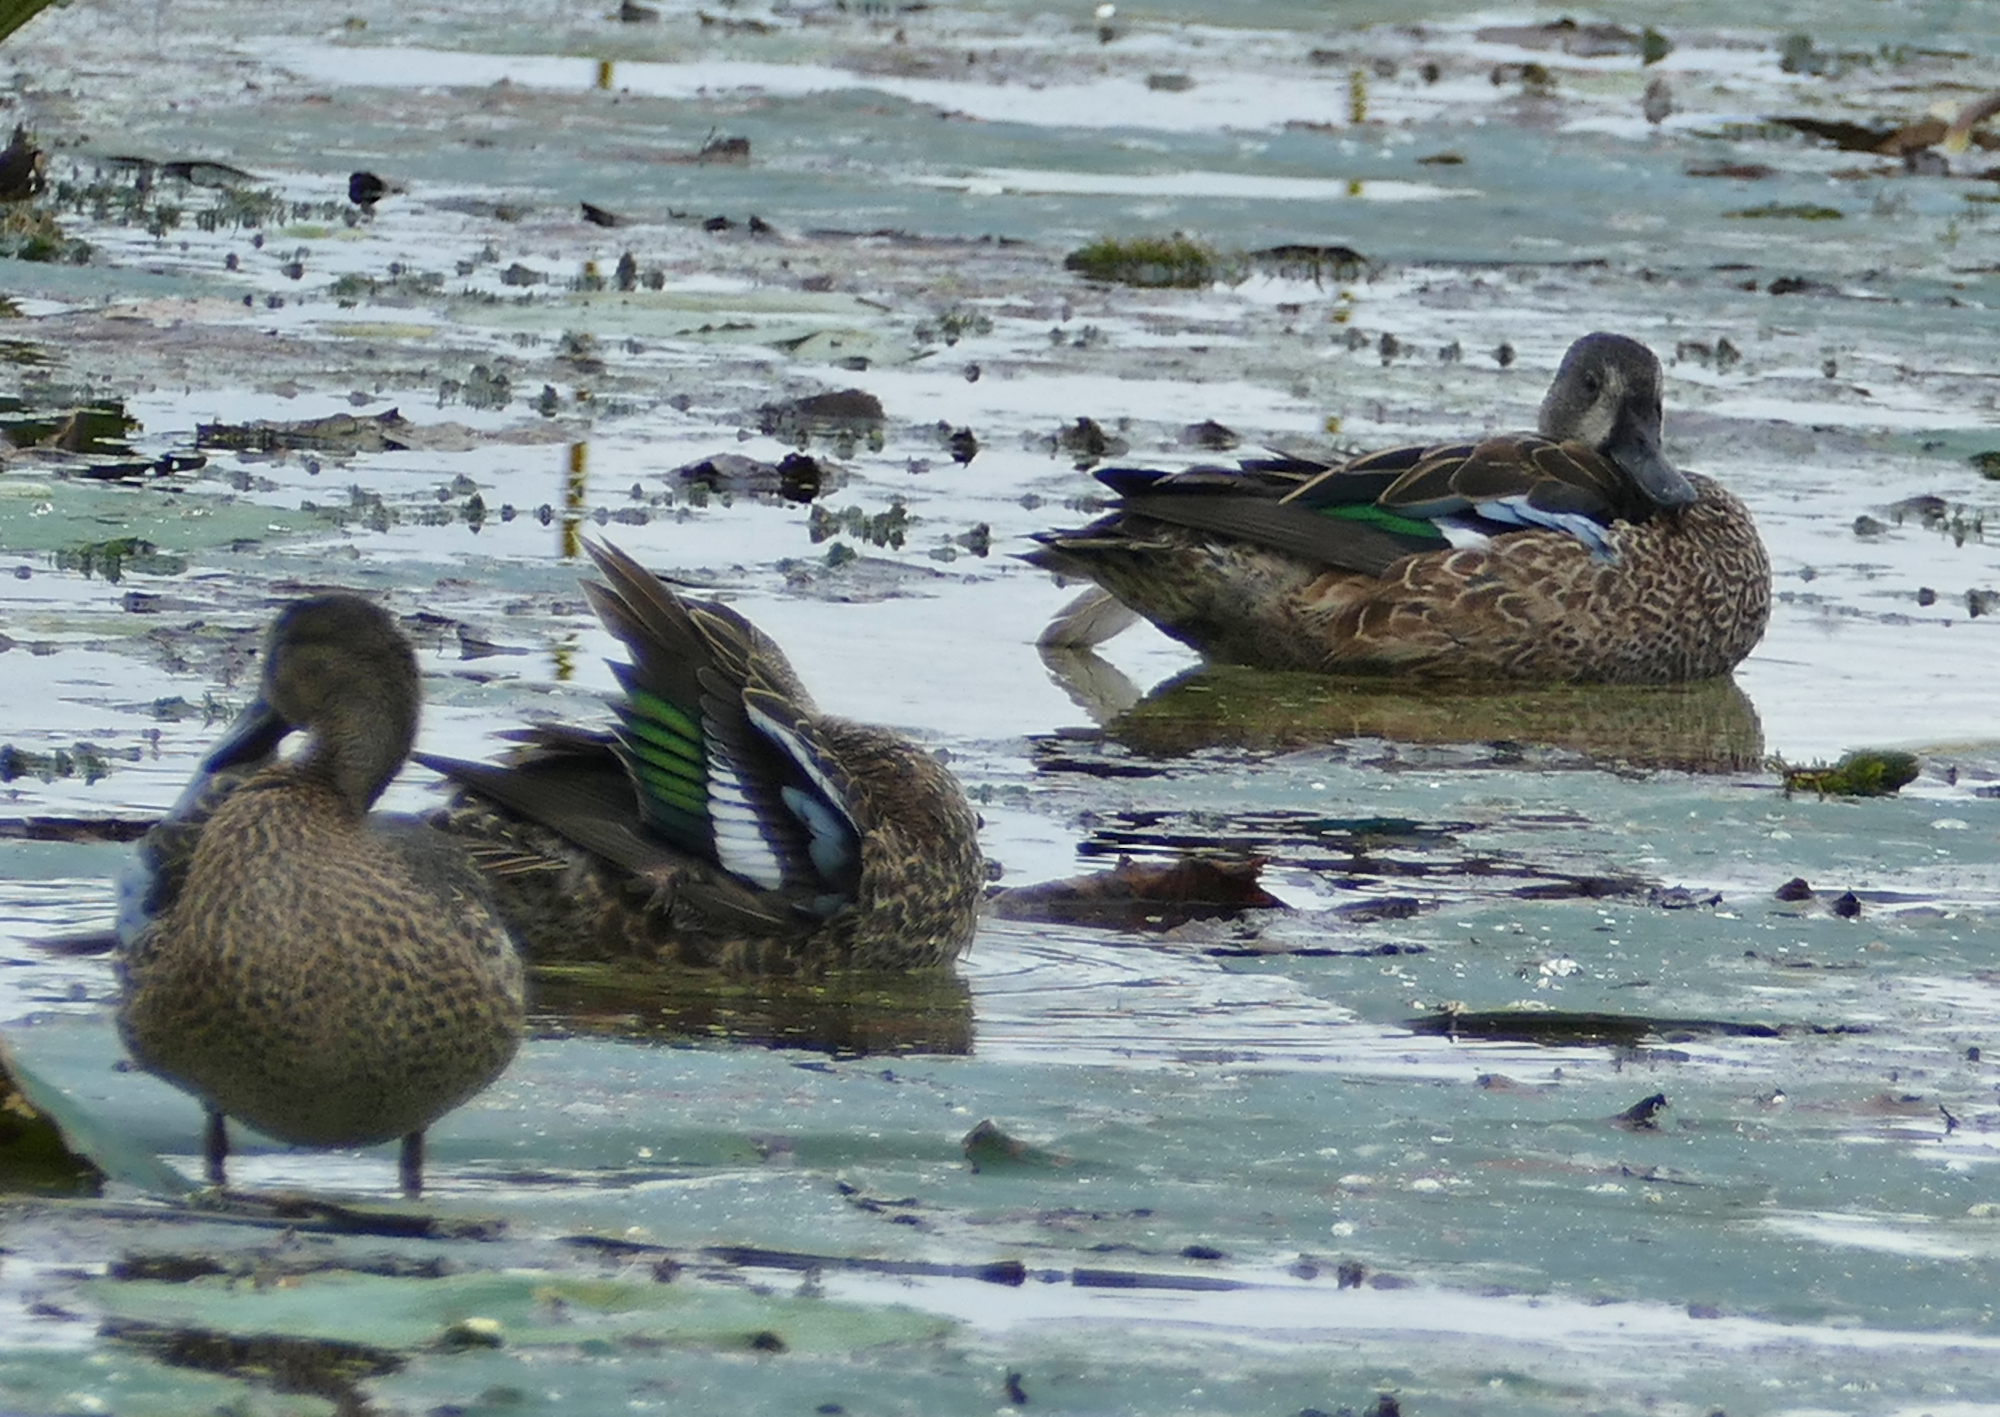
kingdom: Animalia
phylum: Chordata
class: Aves
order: Anseriformes
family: Anatidae
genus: Spatula
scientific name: Spatula discors
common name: Blue-winged teal
